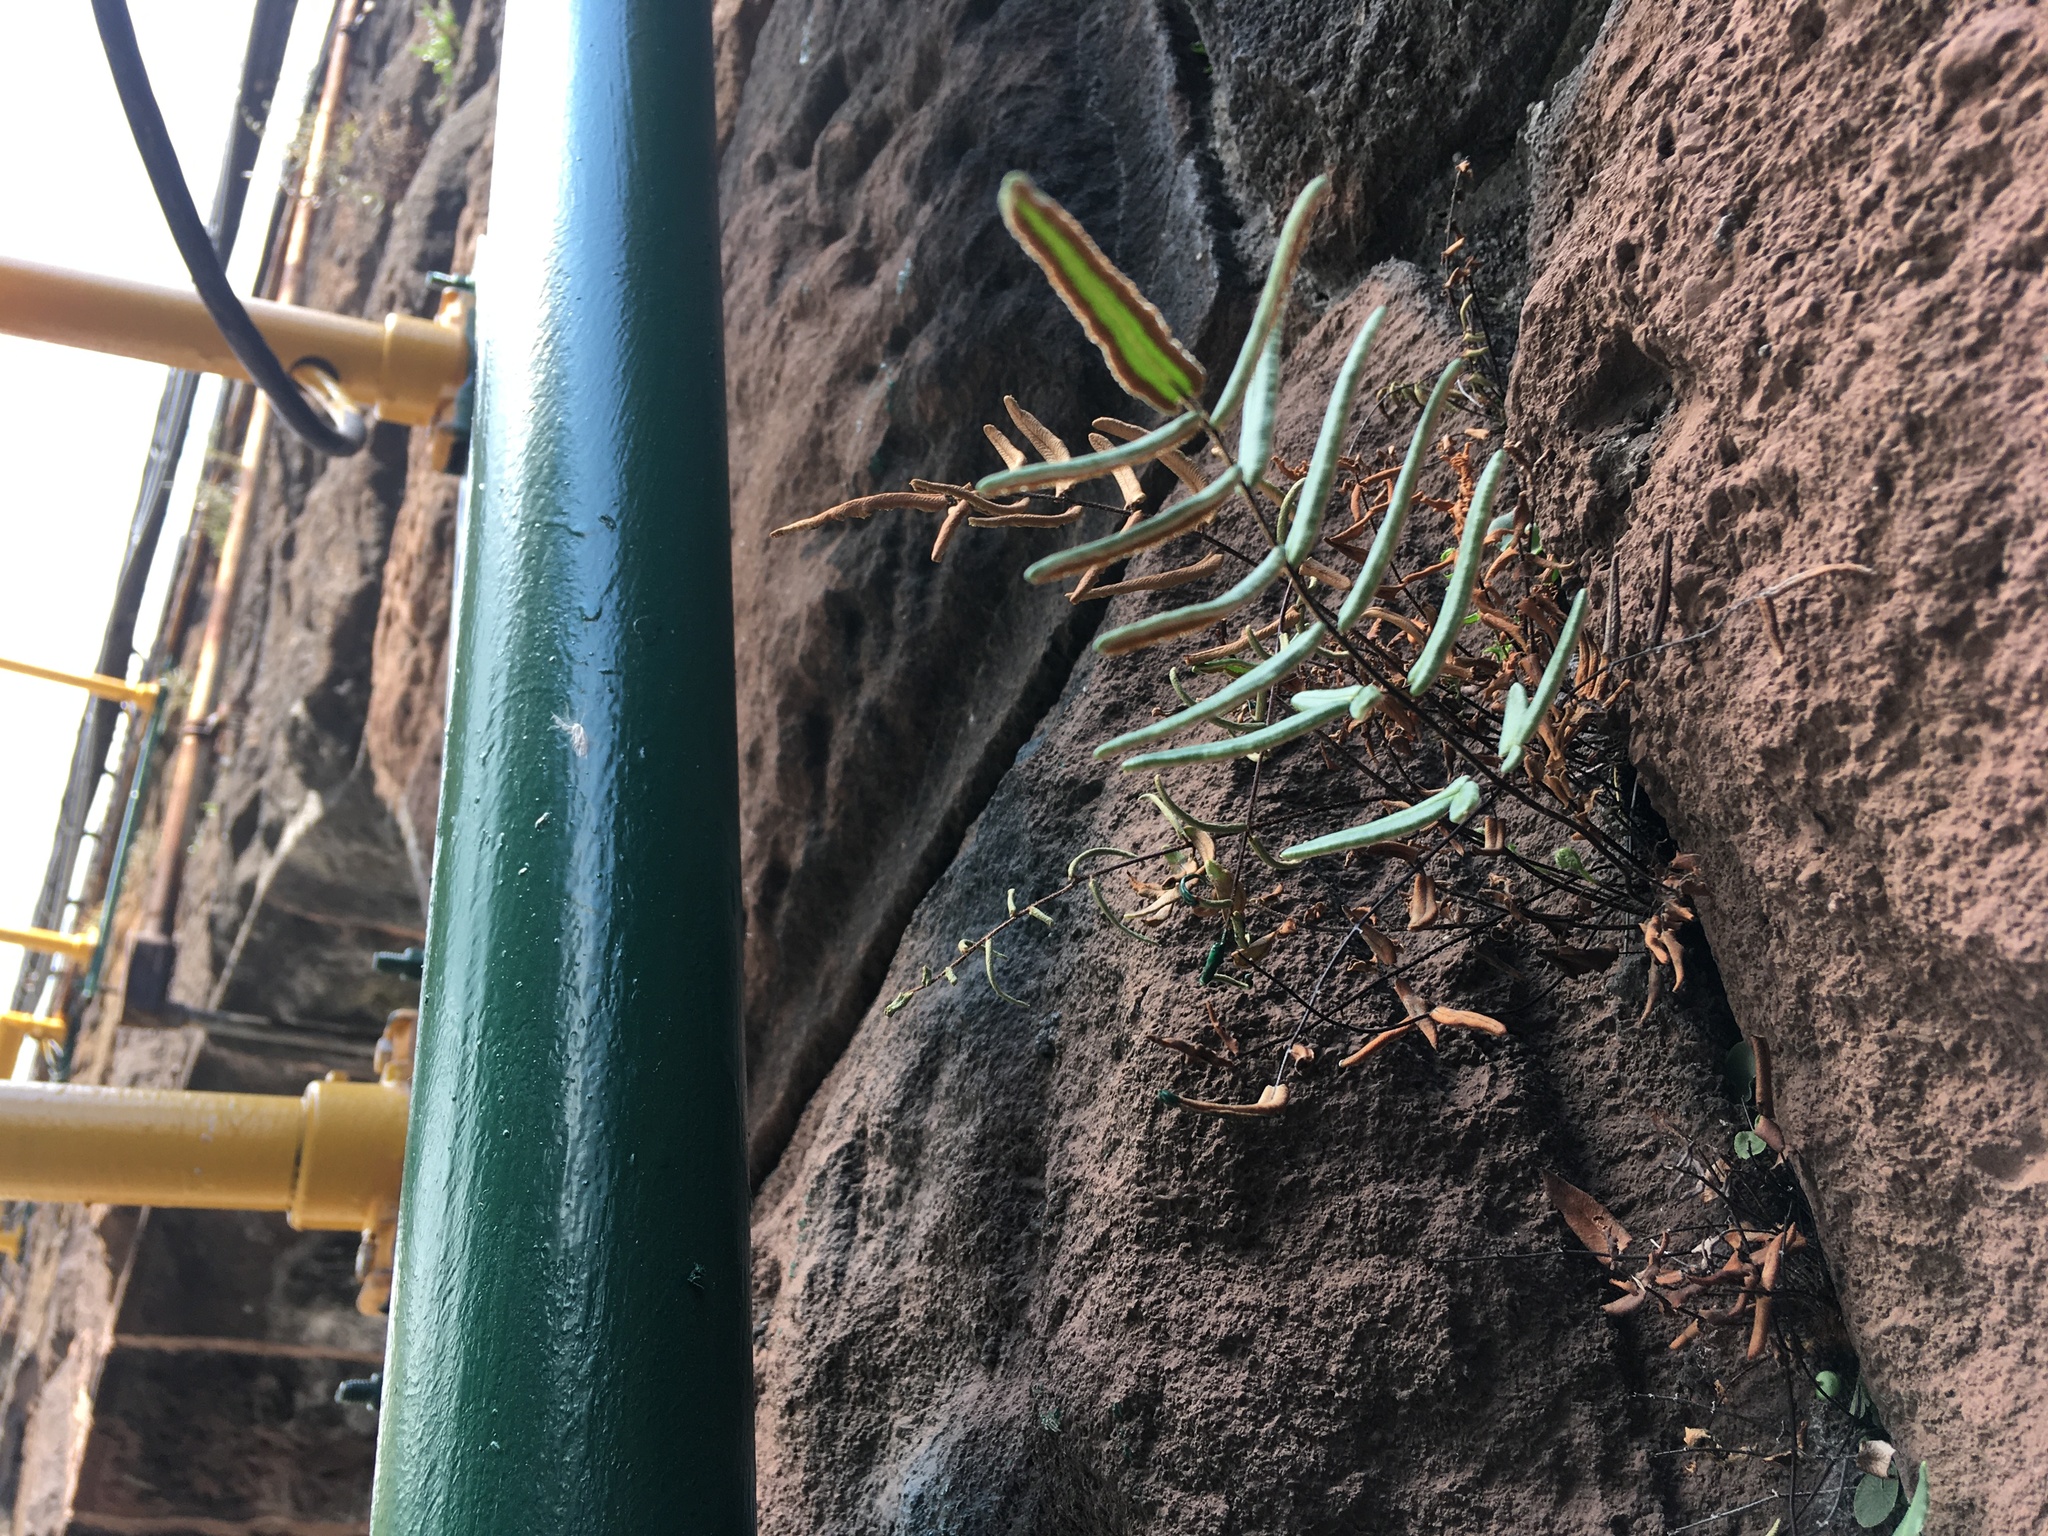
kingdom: Plantae
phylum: Tracheophyta
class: Polypodiopsida
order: Polypodiales
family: Pteridaceae
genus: Pellaea
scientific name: Pellaea atropurpurea
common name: Hairy cliffbrake
